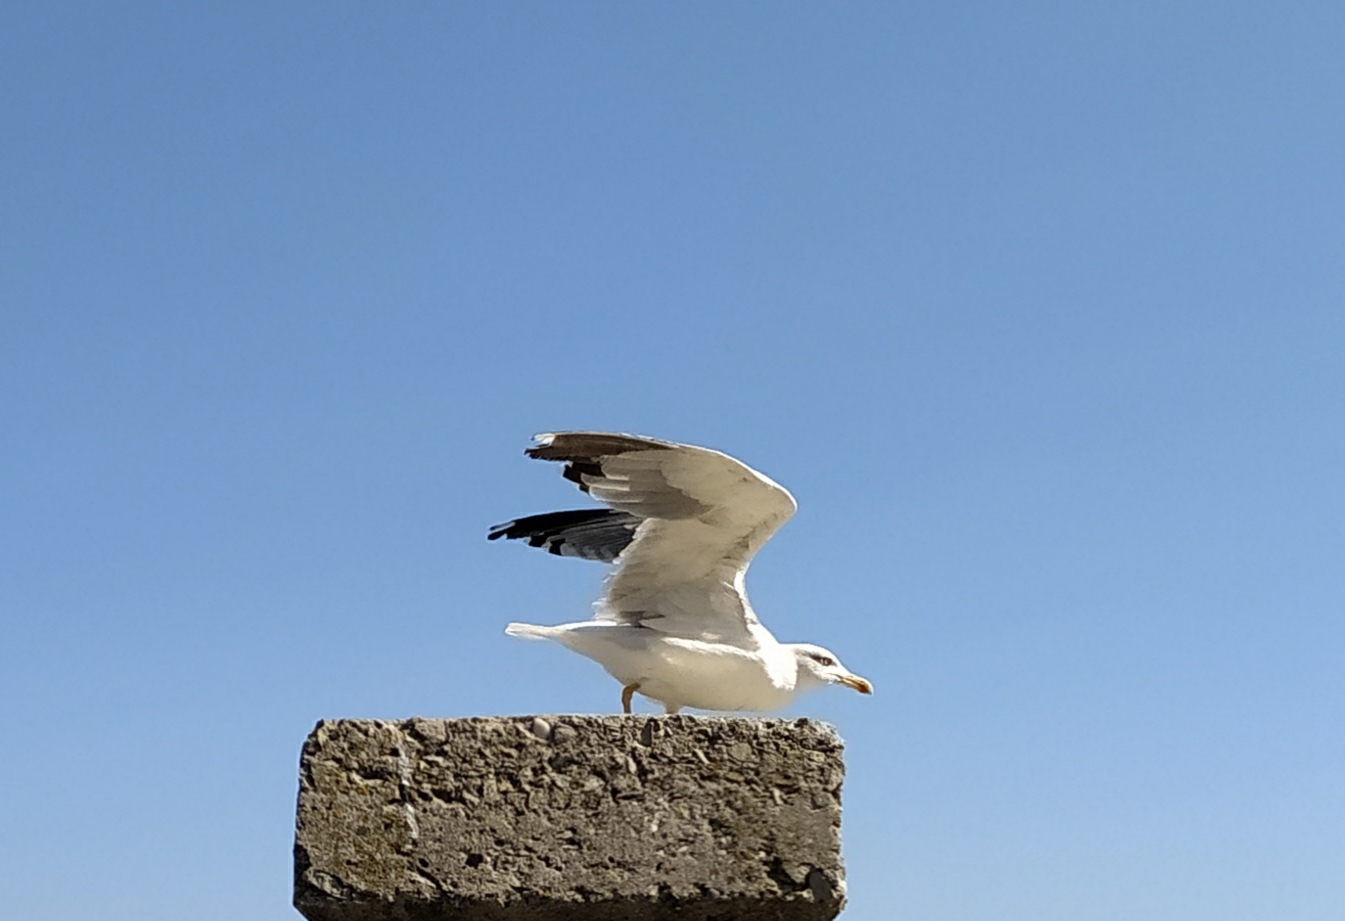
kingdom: Animalia
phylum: Chordata
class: Aves
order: Charadriiformes
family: Laridae
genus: Larus
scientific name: Larus michahellis
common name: Yellow-legged gull
